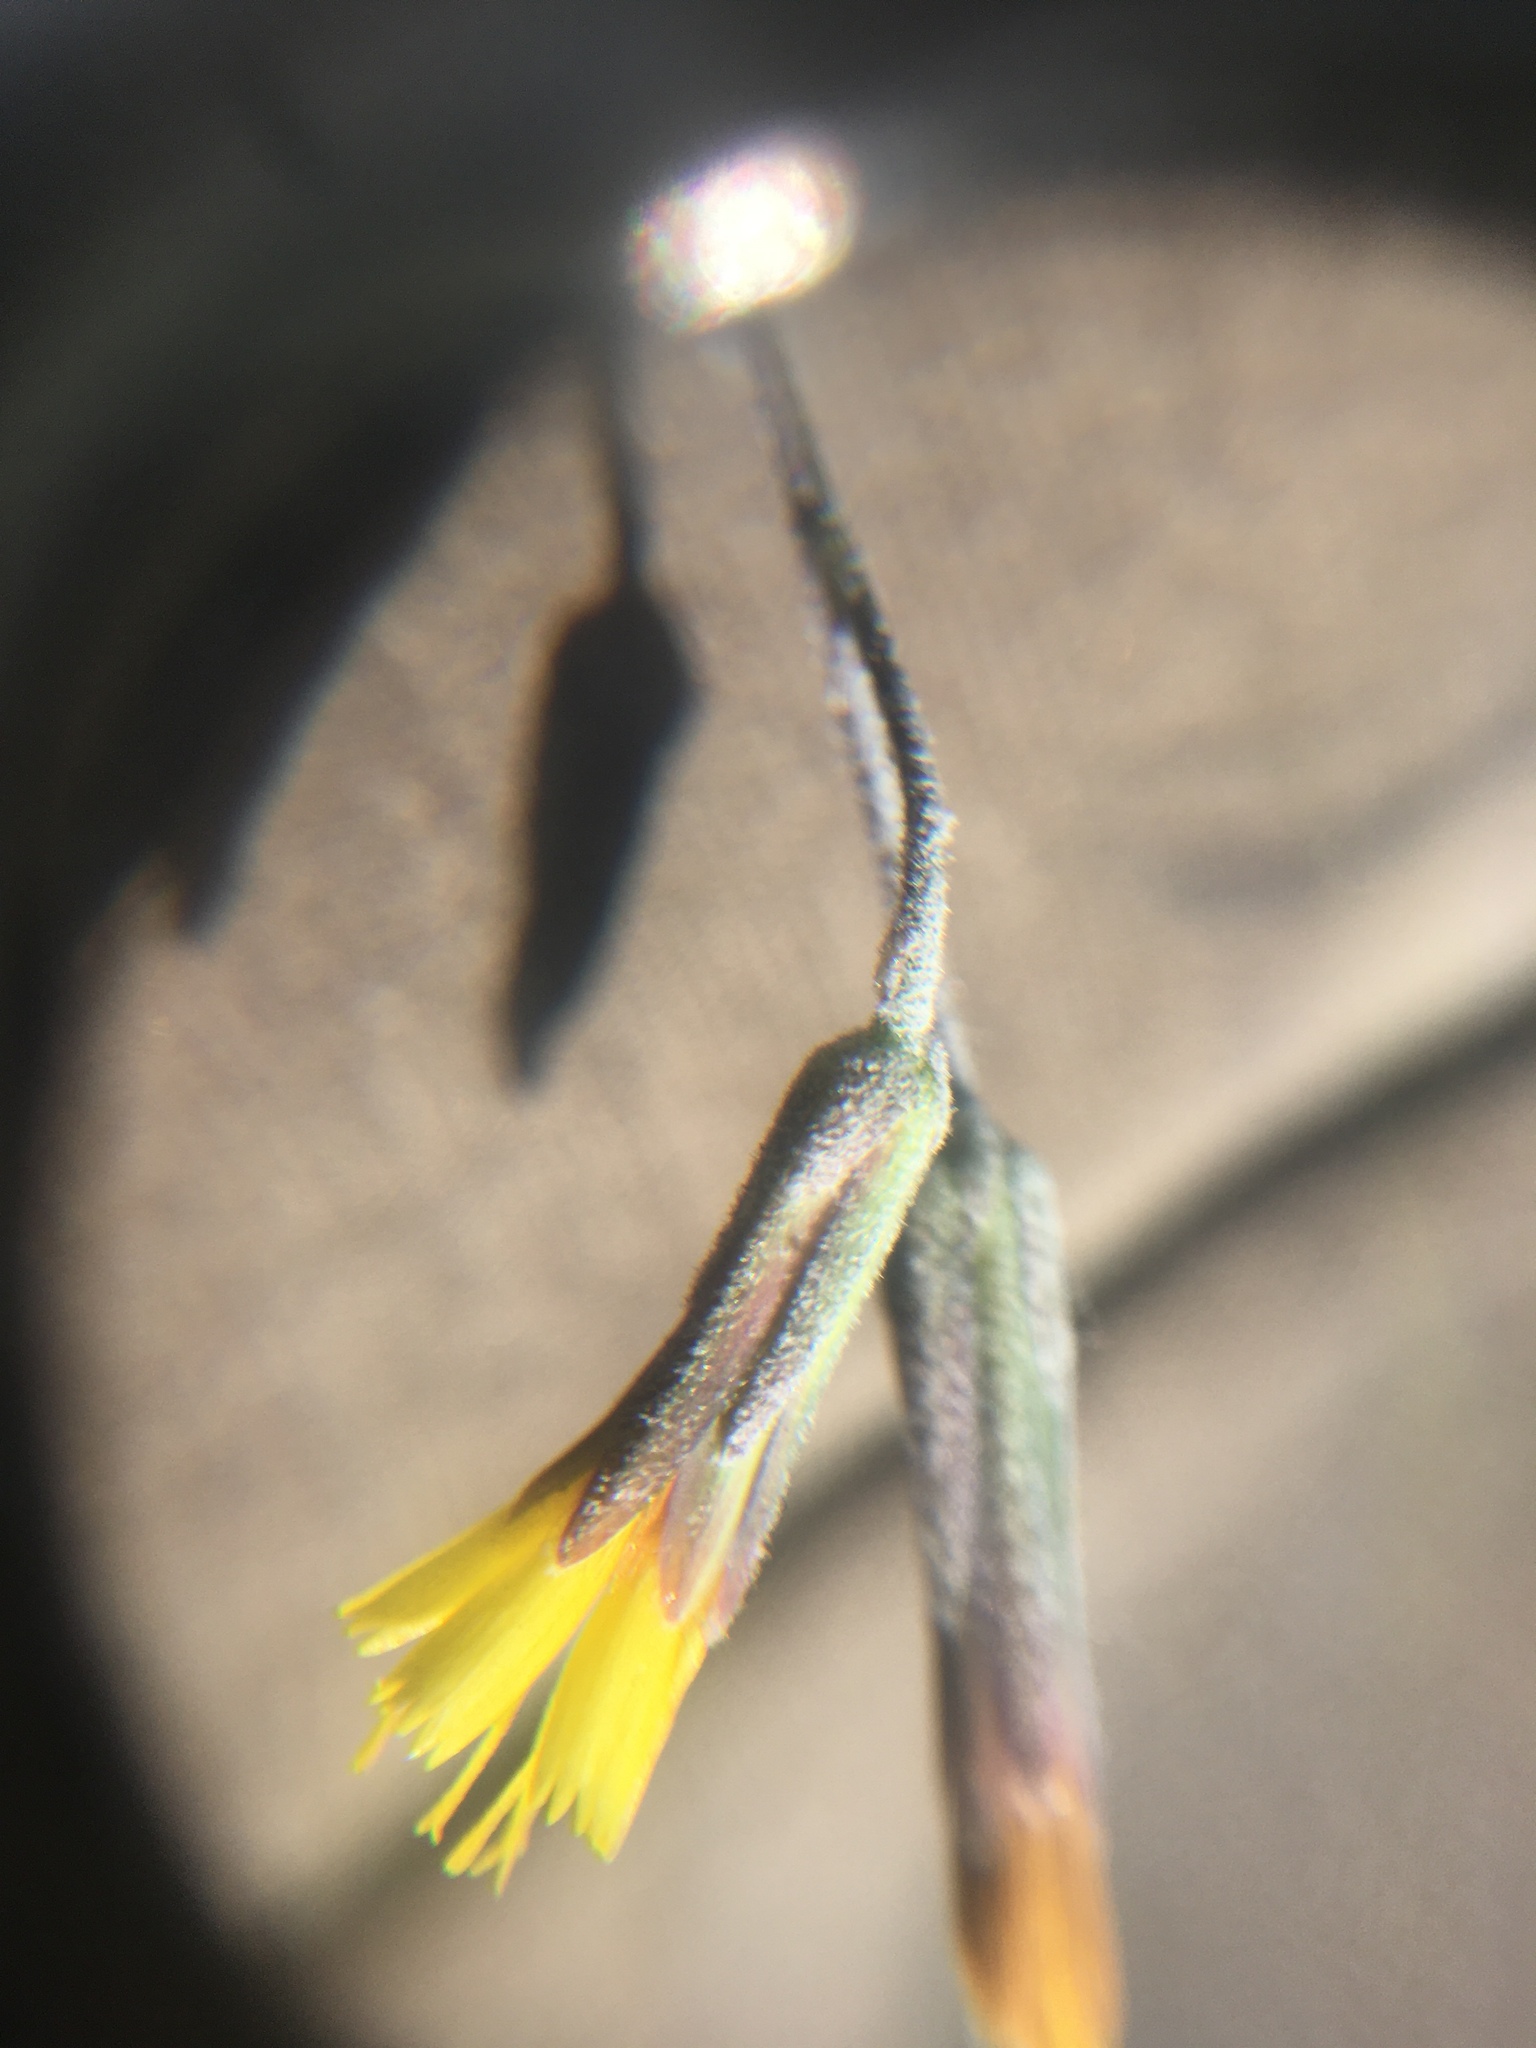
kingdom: Plantae
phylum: Tracheophyta
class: Magnoliopsida
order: Asterales
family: Asteraceae
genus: Hieracium
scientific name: Hieracium greenei
